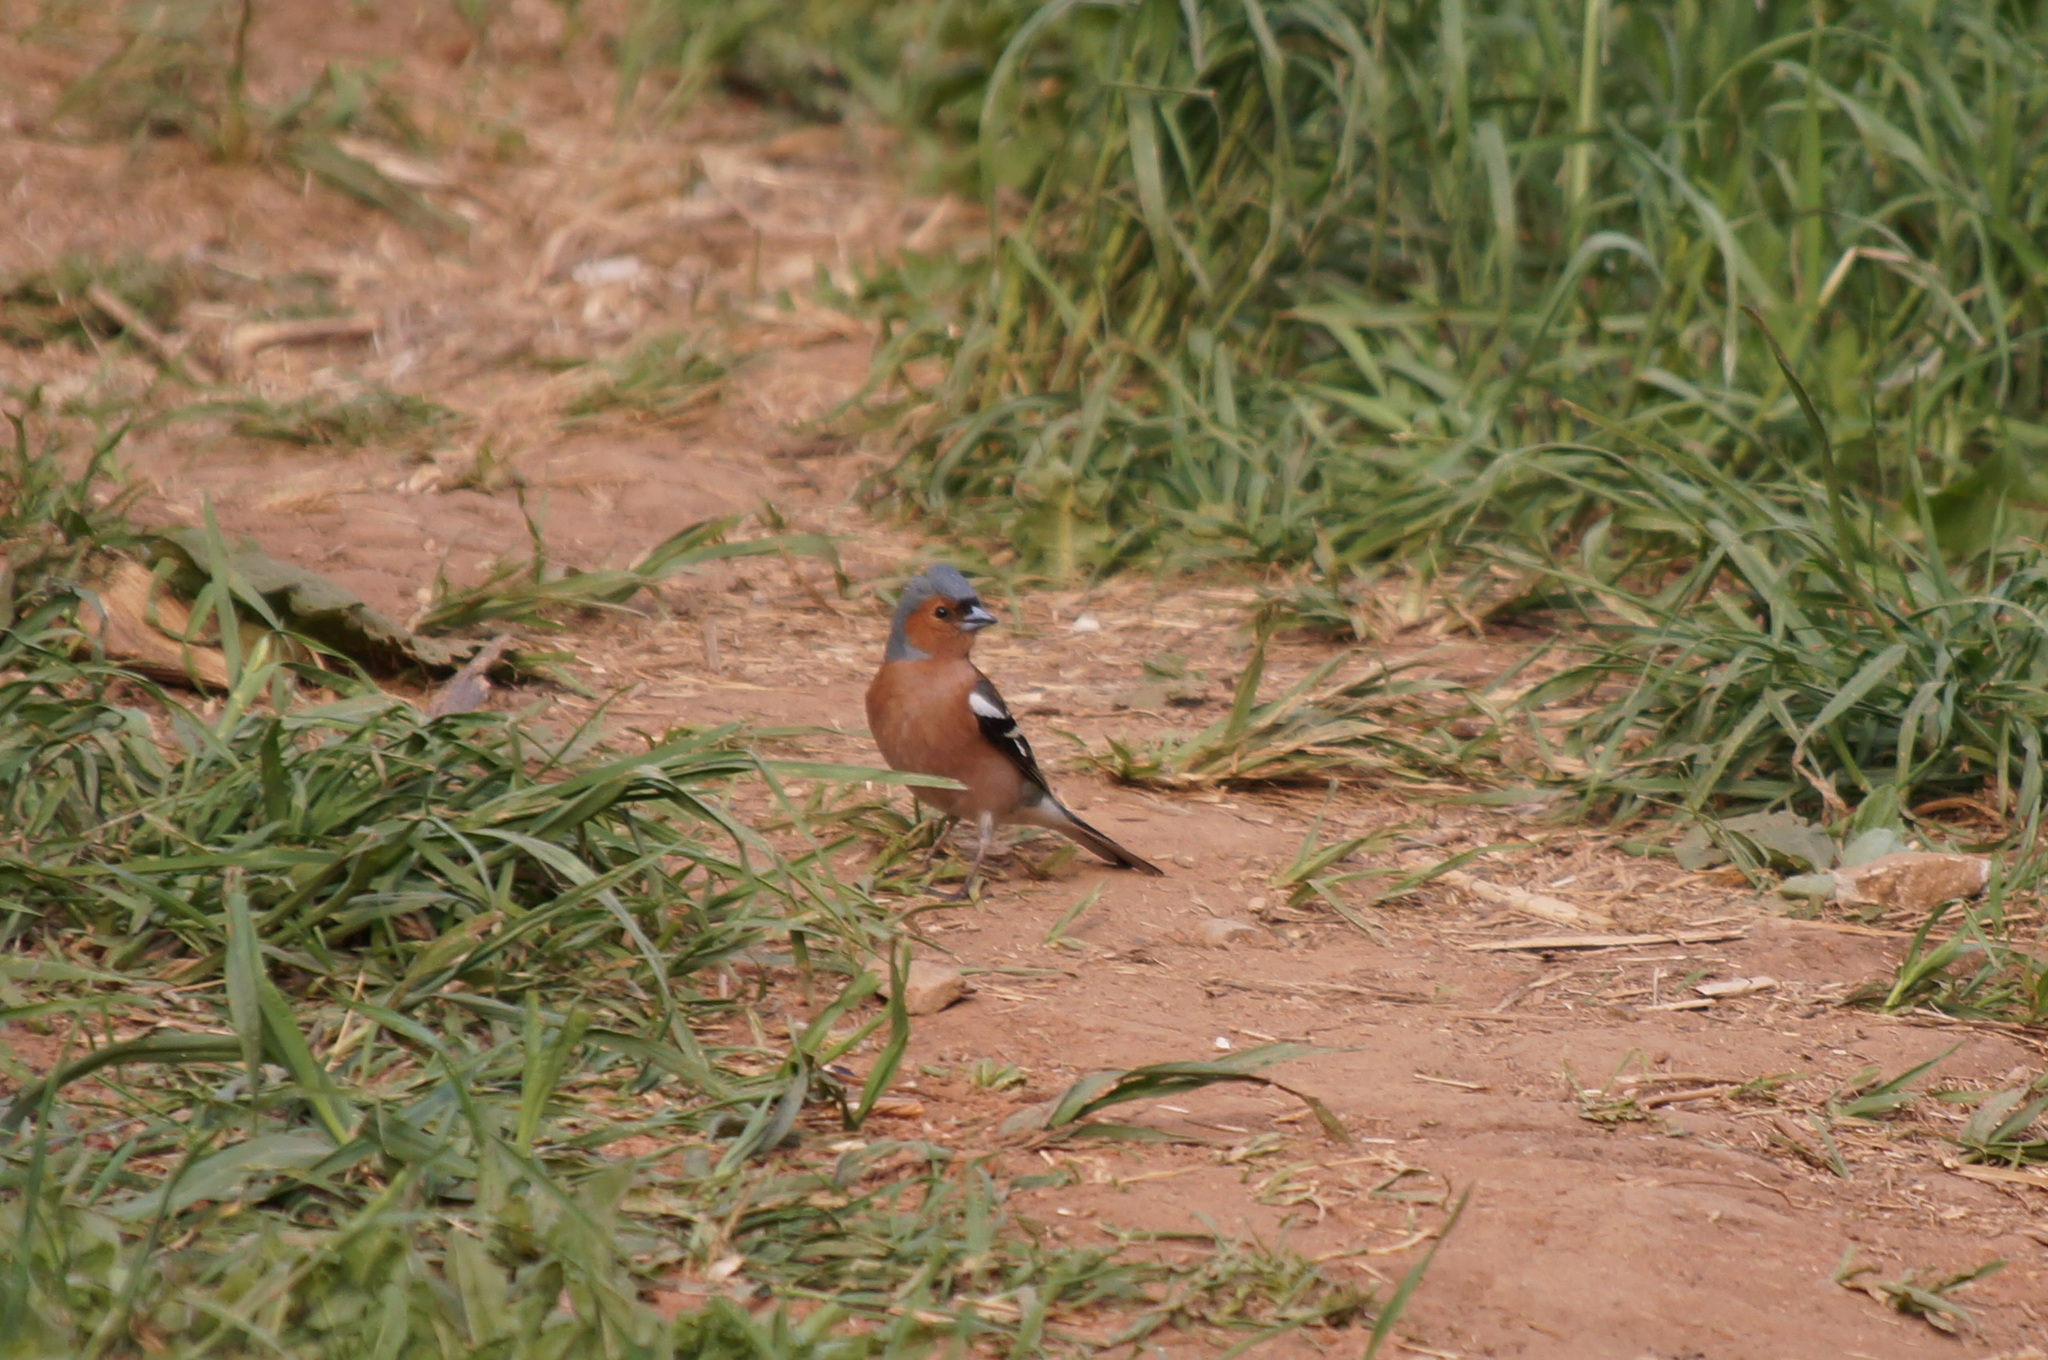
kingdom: Animalia
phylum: Chordata
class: Aves
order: Passeriformes
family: Fringillidae
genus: Fringilla
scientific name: Fringilla coelebs
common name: Common chaffinch
